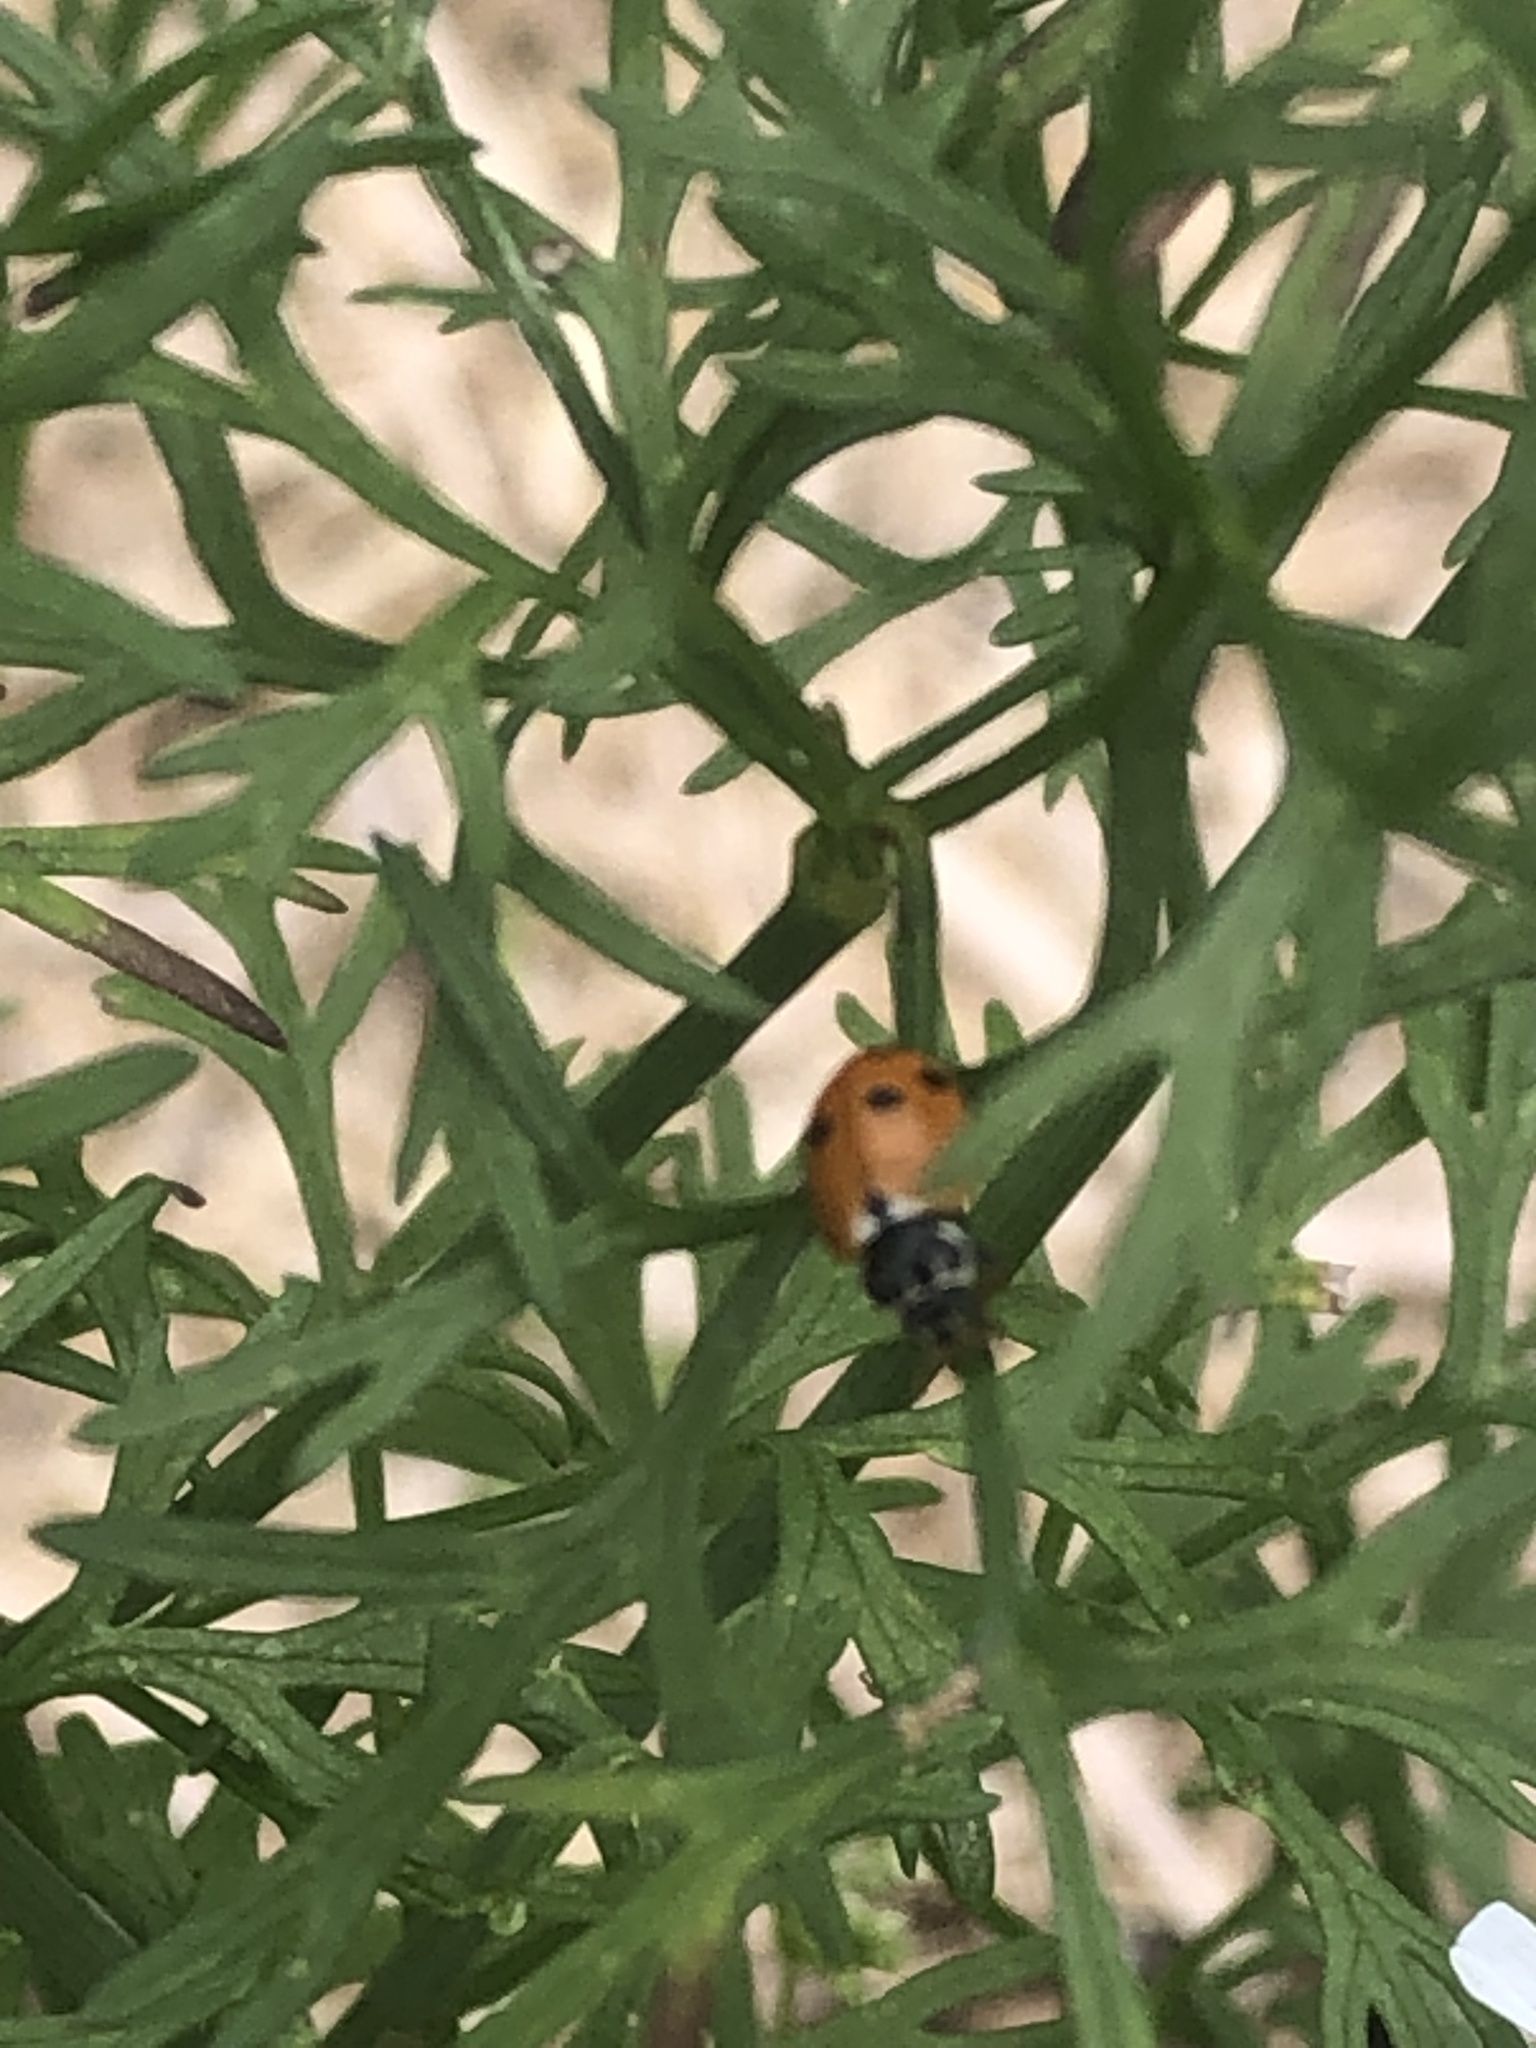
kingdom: Animalia
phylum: Arthropoda
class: Insecta
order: Coleoptera
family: Coccinellidae
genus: Hippodamia
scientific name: Hippodamia variegata
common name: Ladybird beetle
